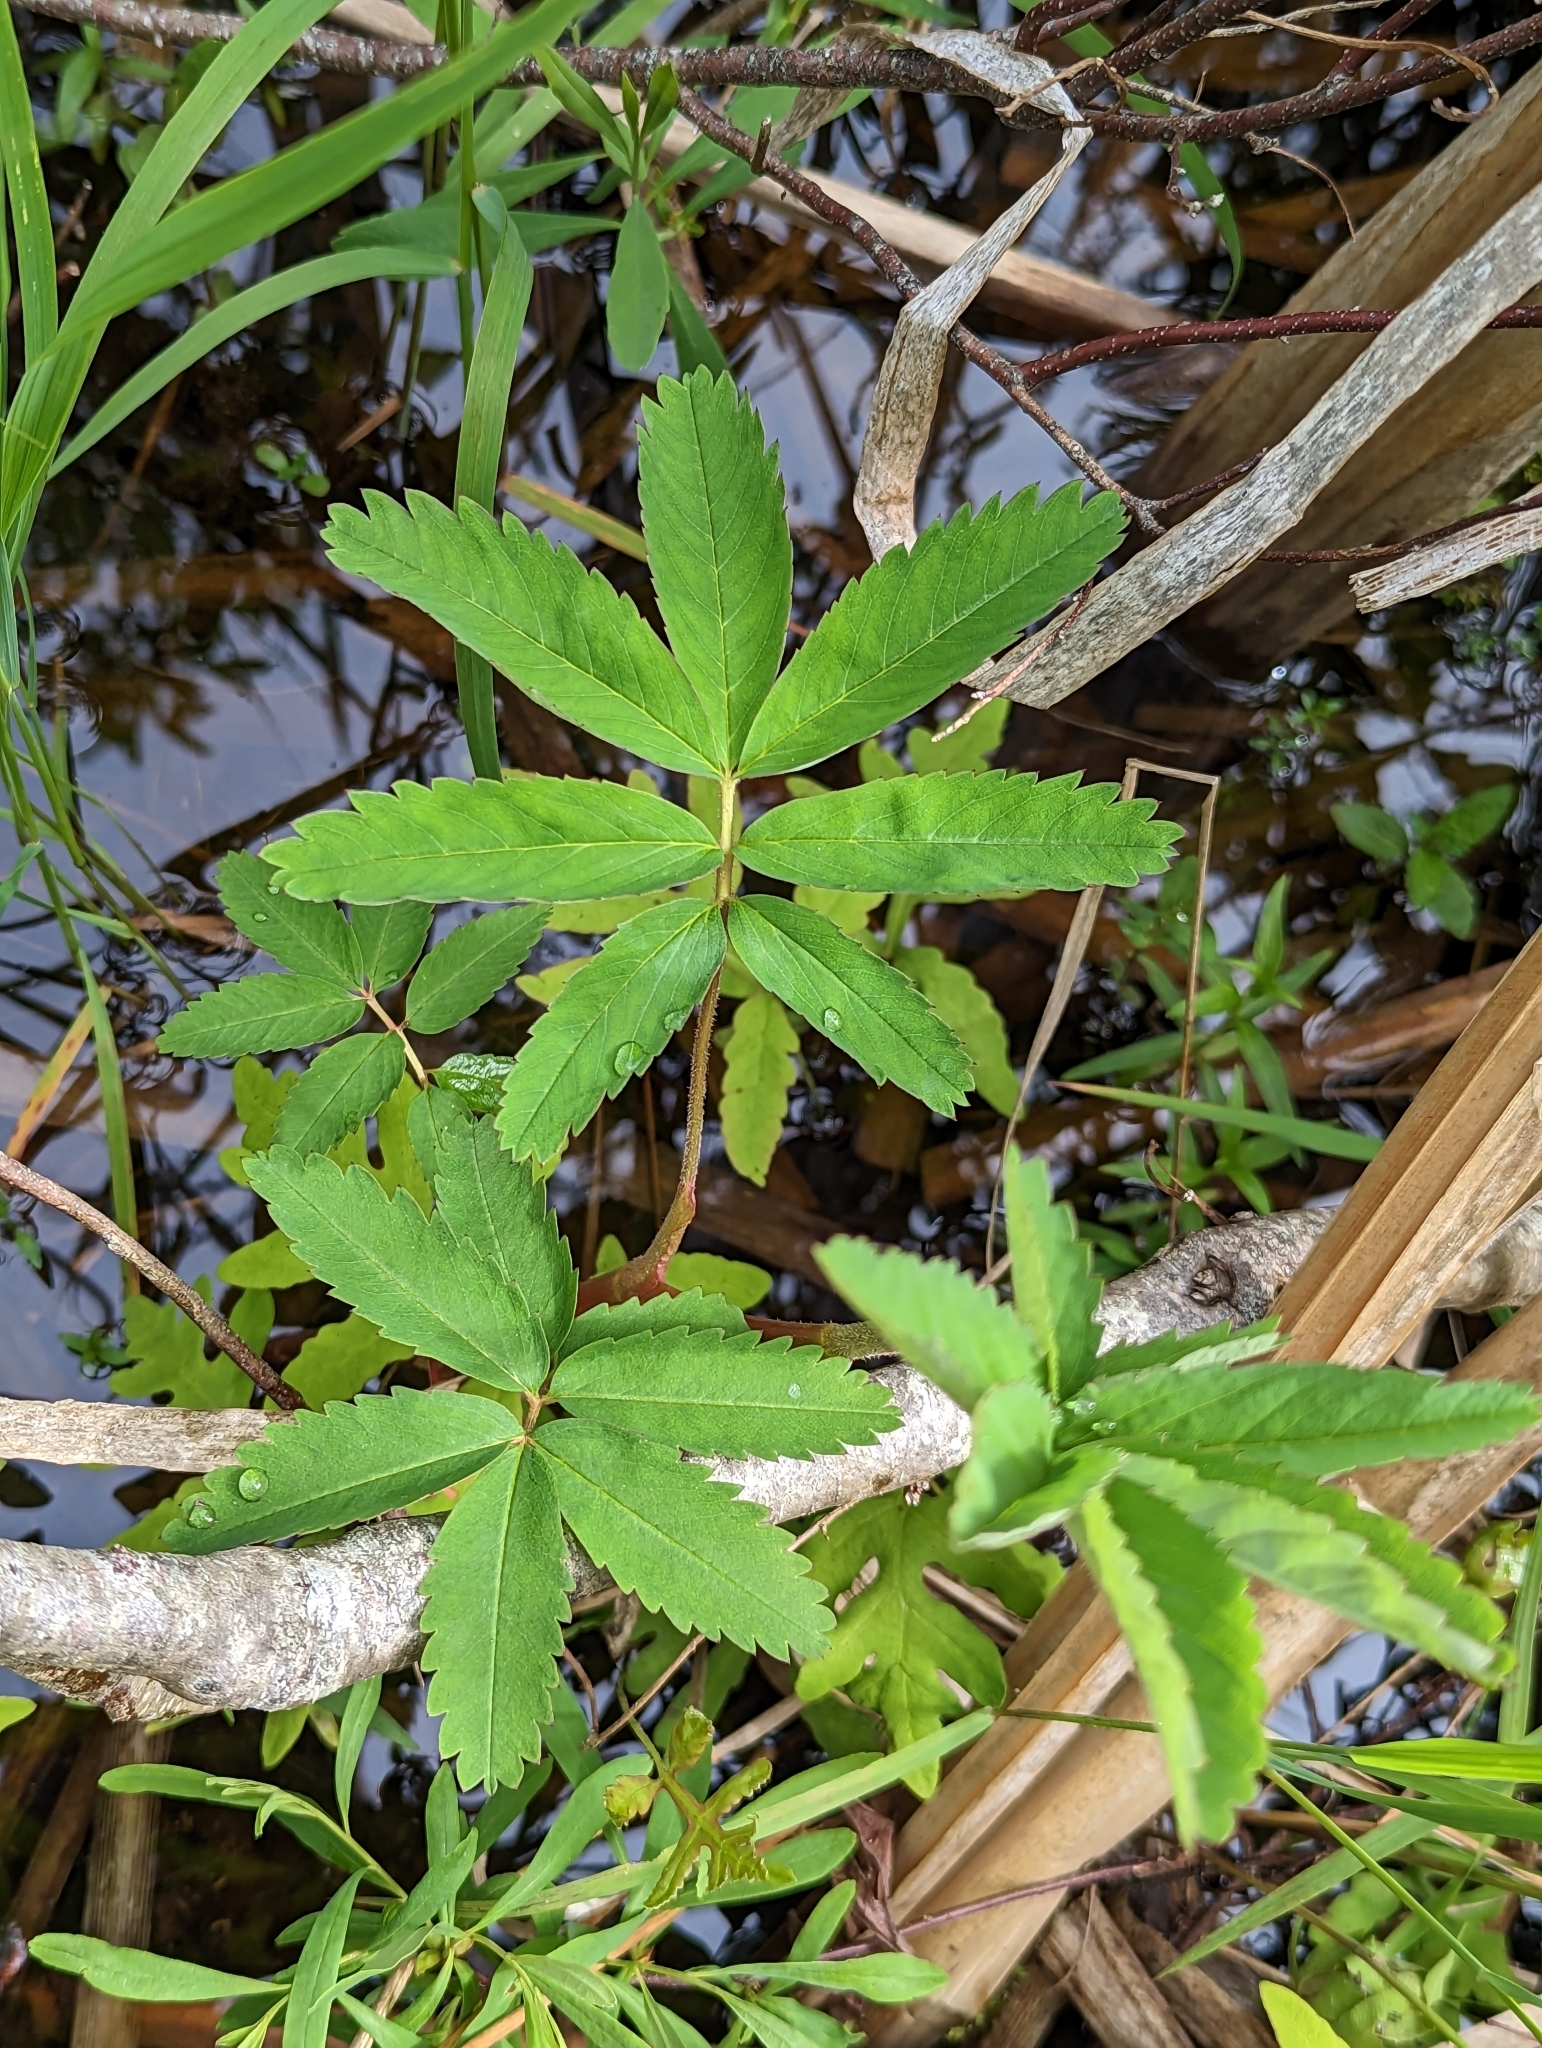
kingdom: Plantae
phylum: Tracheophyta
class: Magnoliopsida
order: Rosales
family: Rosaceae
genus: Comarum
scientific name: Comarum palustre
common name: Marsh cinquefoil
